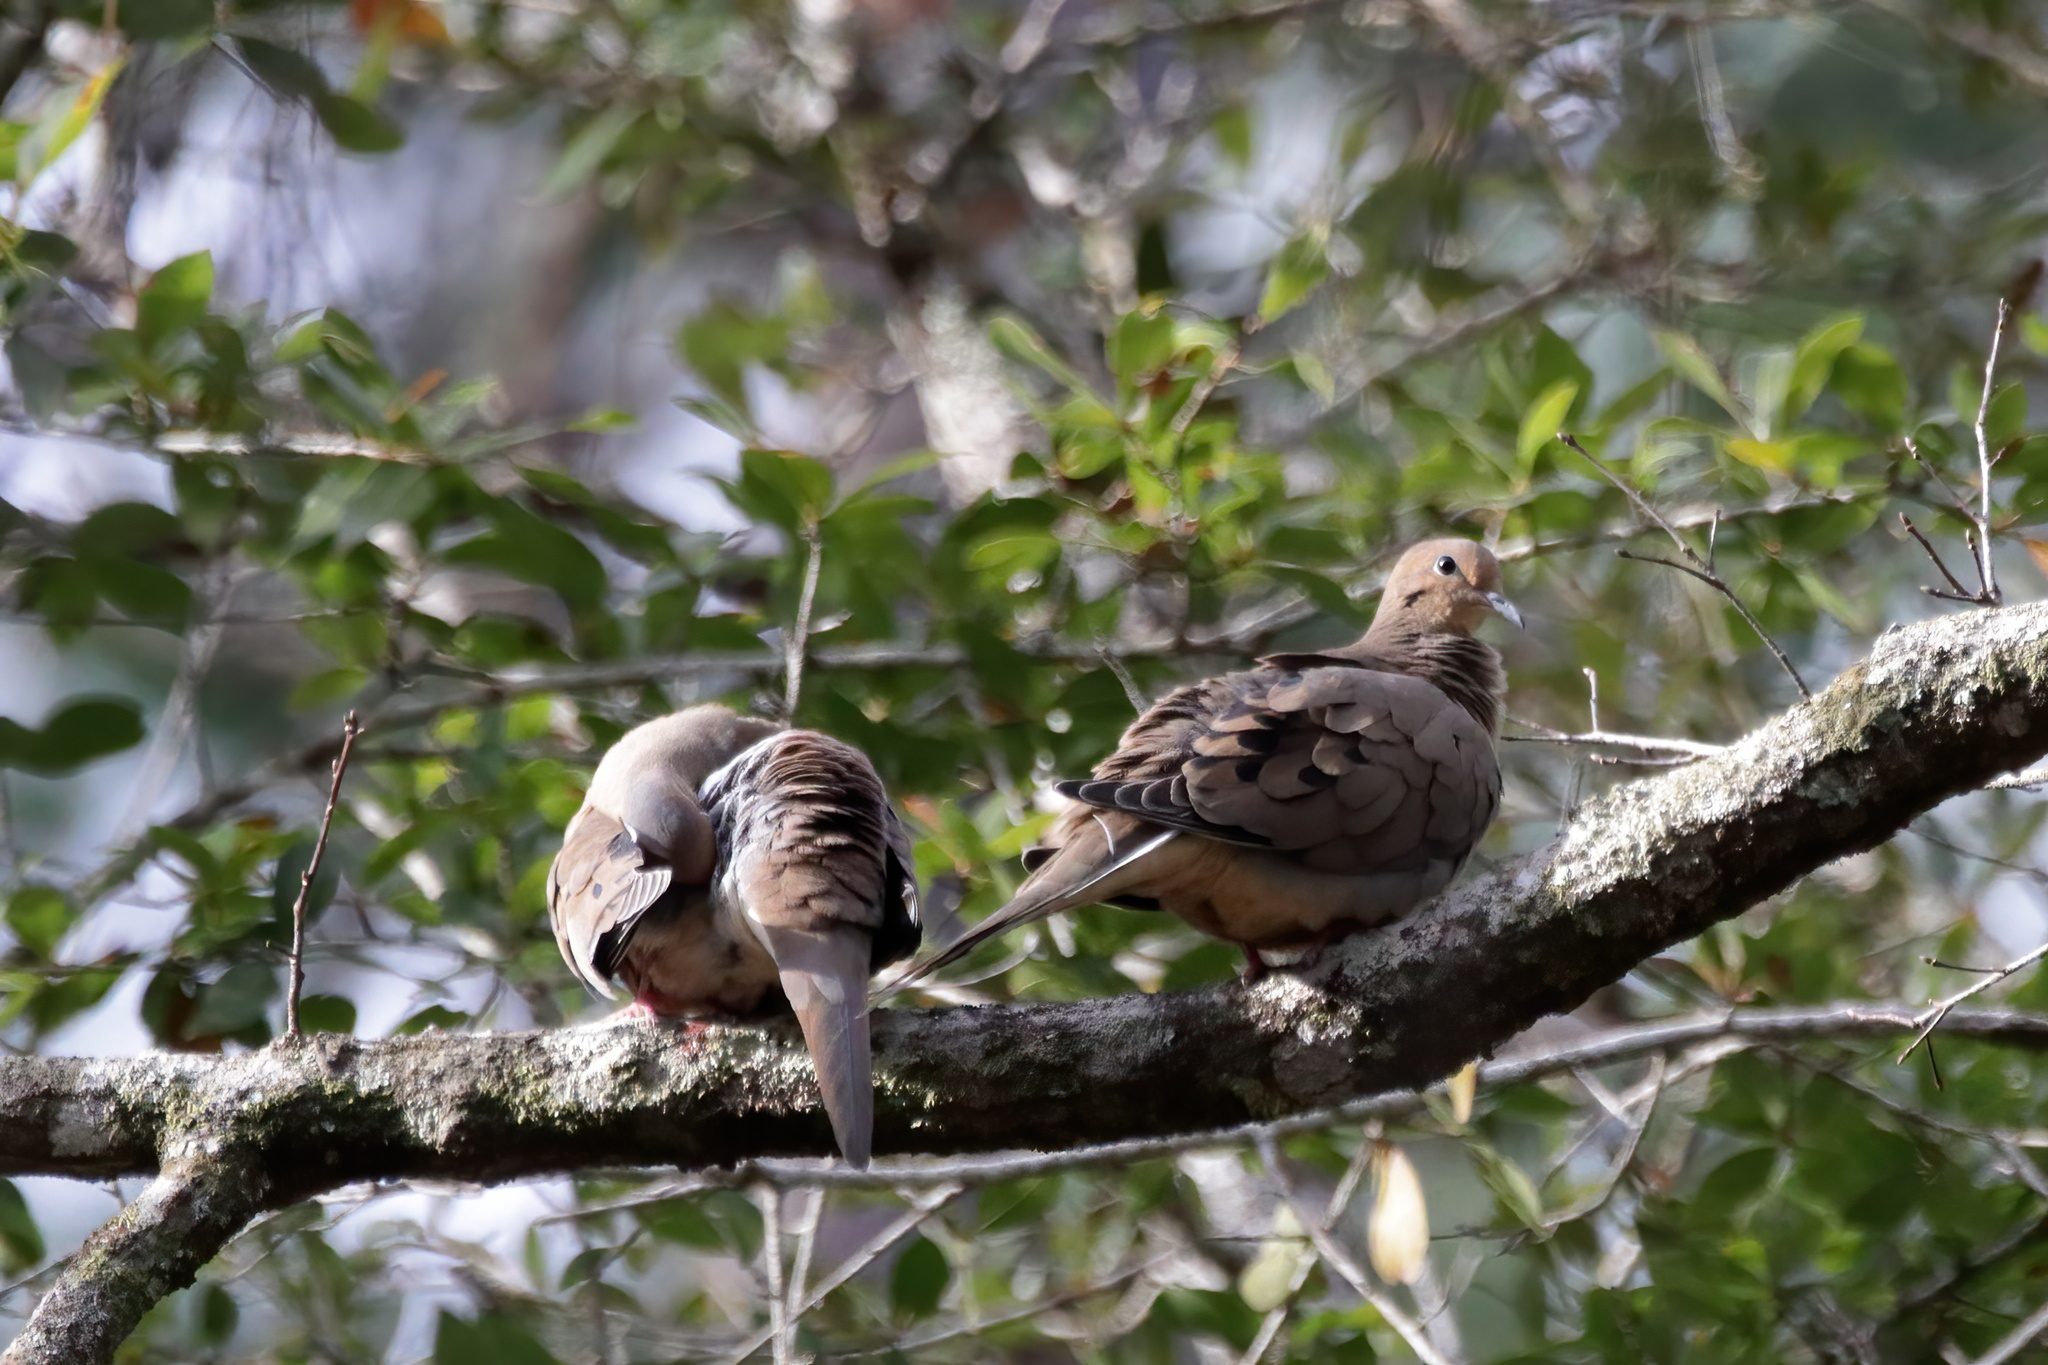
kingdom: Animalia
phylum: Chordata
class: Aves
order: Columbiformes
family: Columbidae
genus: Zenaida
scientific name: Zenaida macroura
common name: Mourning dove
